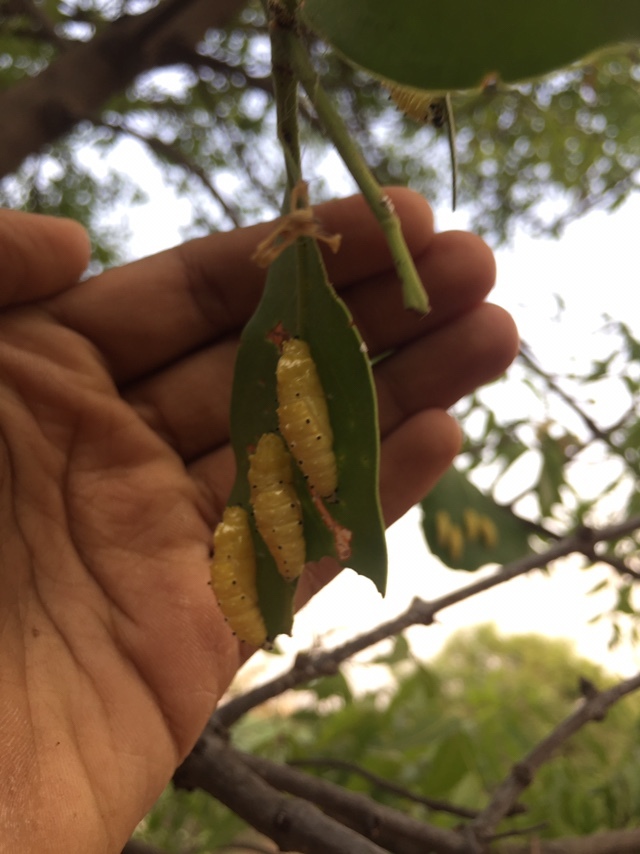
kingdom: Animalia
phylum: Arthropoda
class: Insecta
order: Lepidoptera
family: Pieridae
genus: Delias
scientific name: Delias eucharis
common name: Common jezebel
